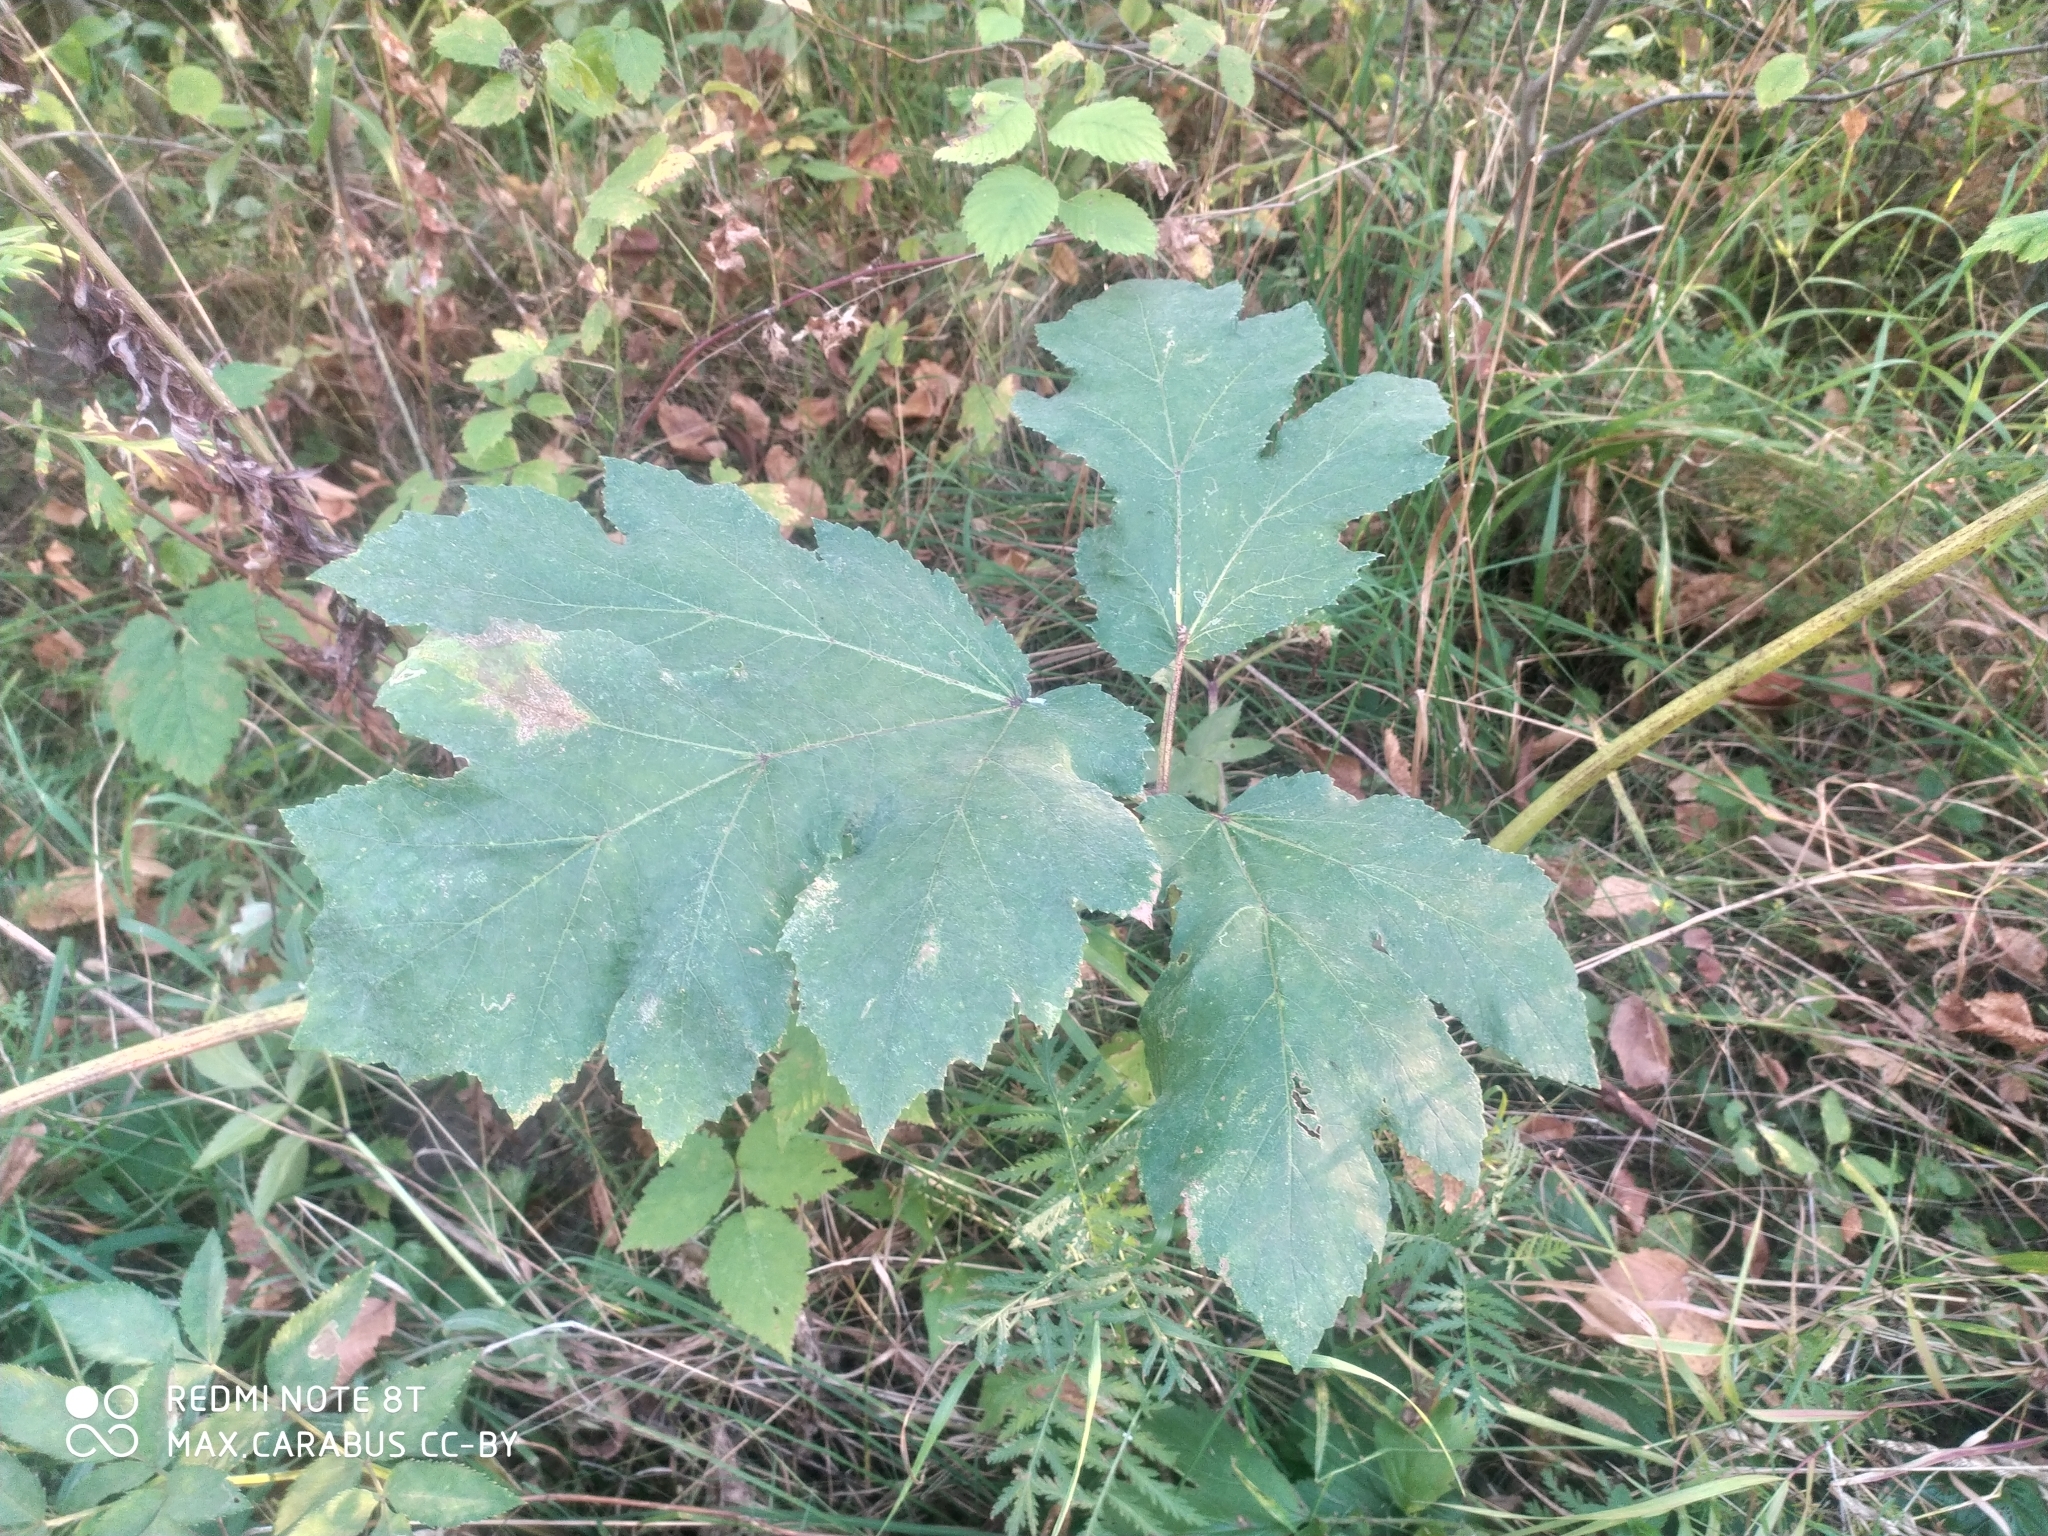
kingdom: Plantae
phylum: Tracheophyta
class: Magnoliopsida
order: Apiales
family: Apiaceae
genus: Heracleum
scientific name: Heracleum sosnowskyi
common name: Sosnowsky's hogweed
